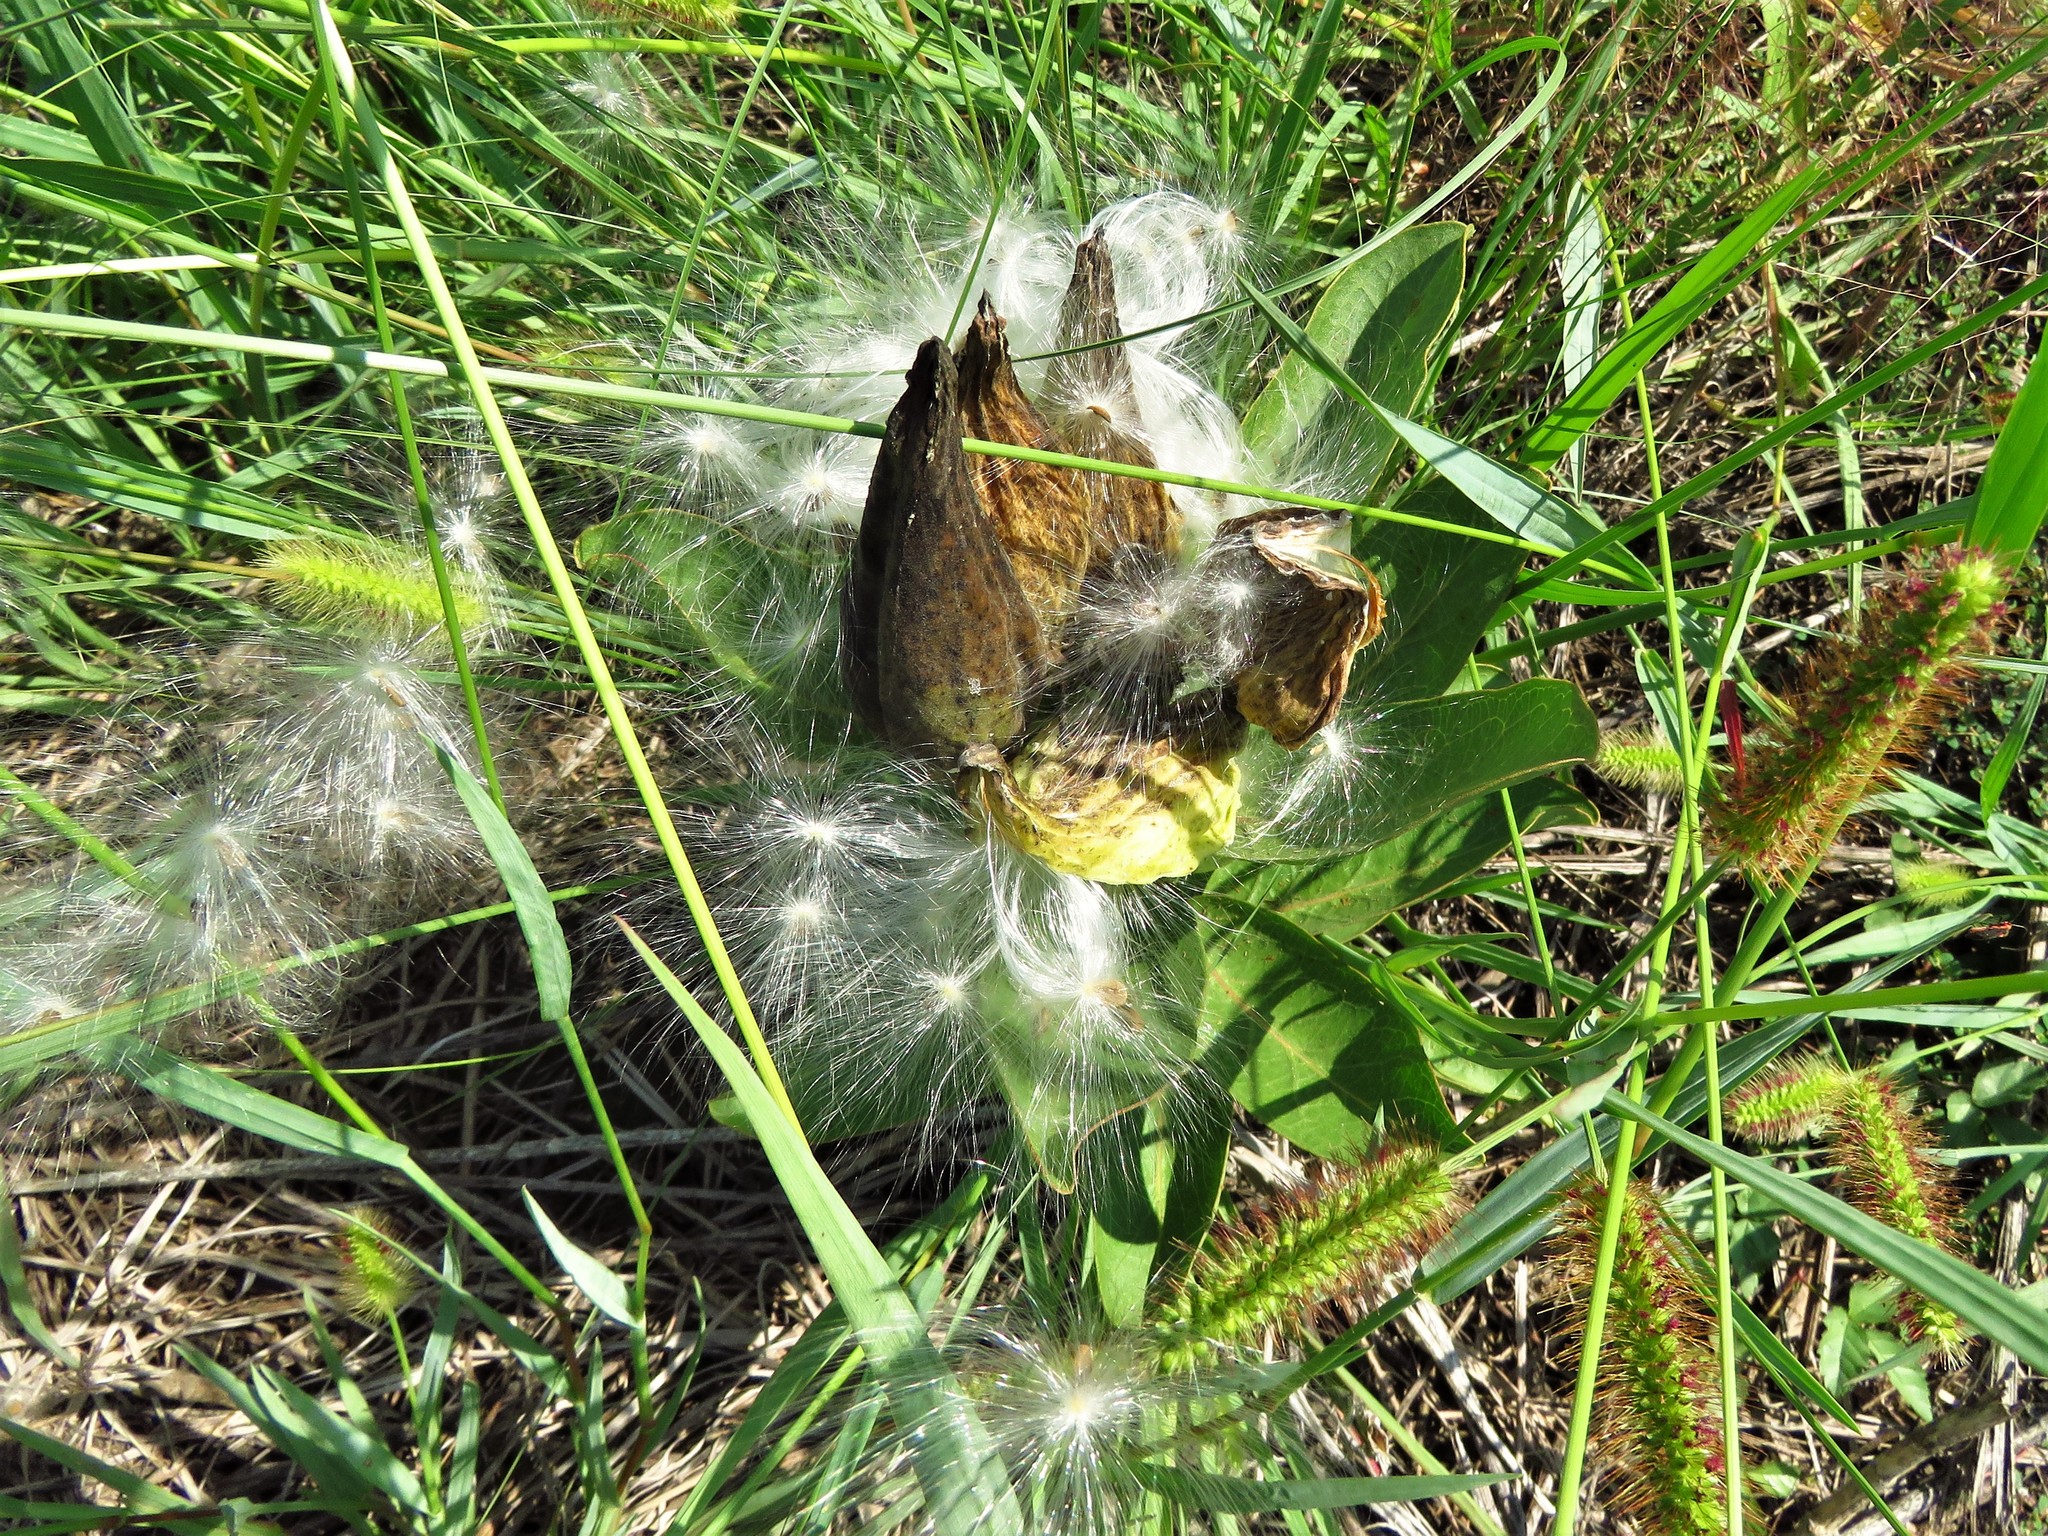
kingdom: Plantae
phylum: Tracheophyta
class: Magnoliopsida
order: Gentianales
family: Apocynaceae
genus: Asclepias
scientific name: Asclepias viridis
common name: Antelope-horns
